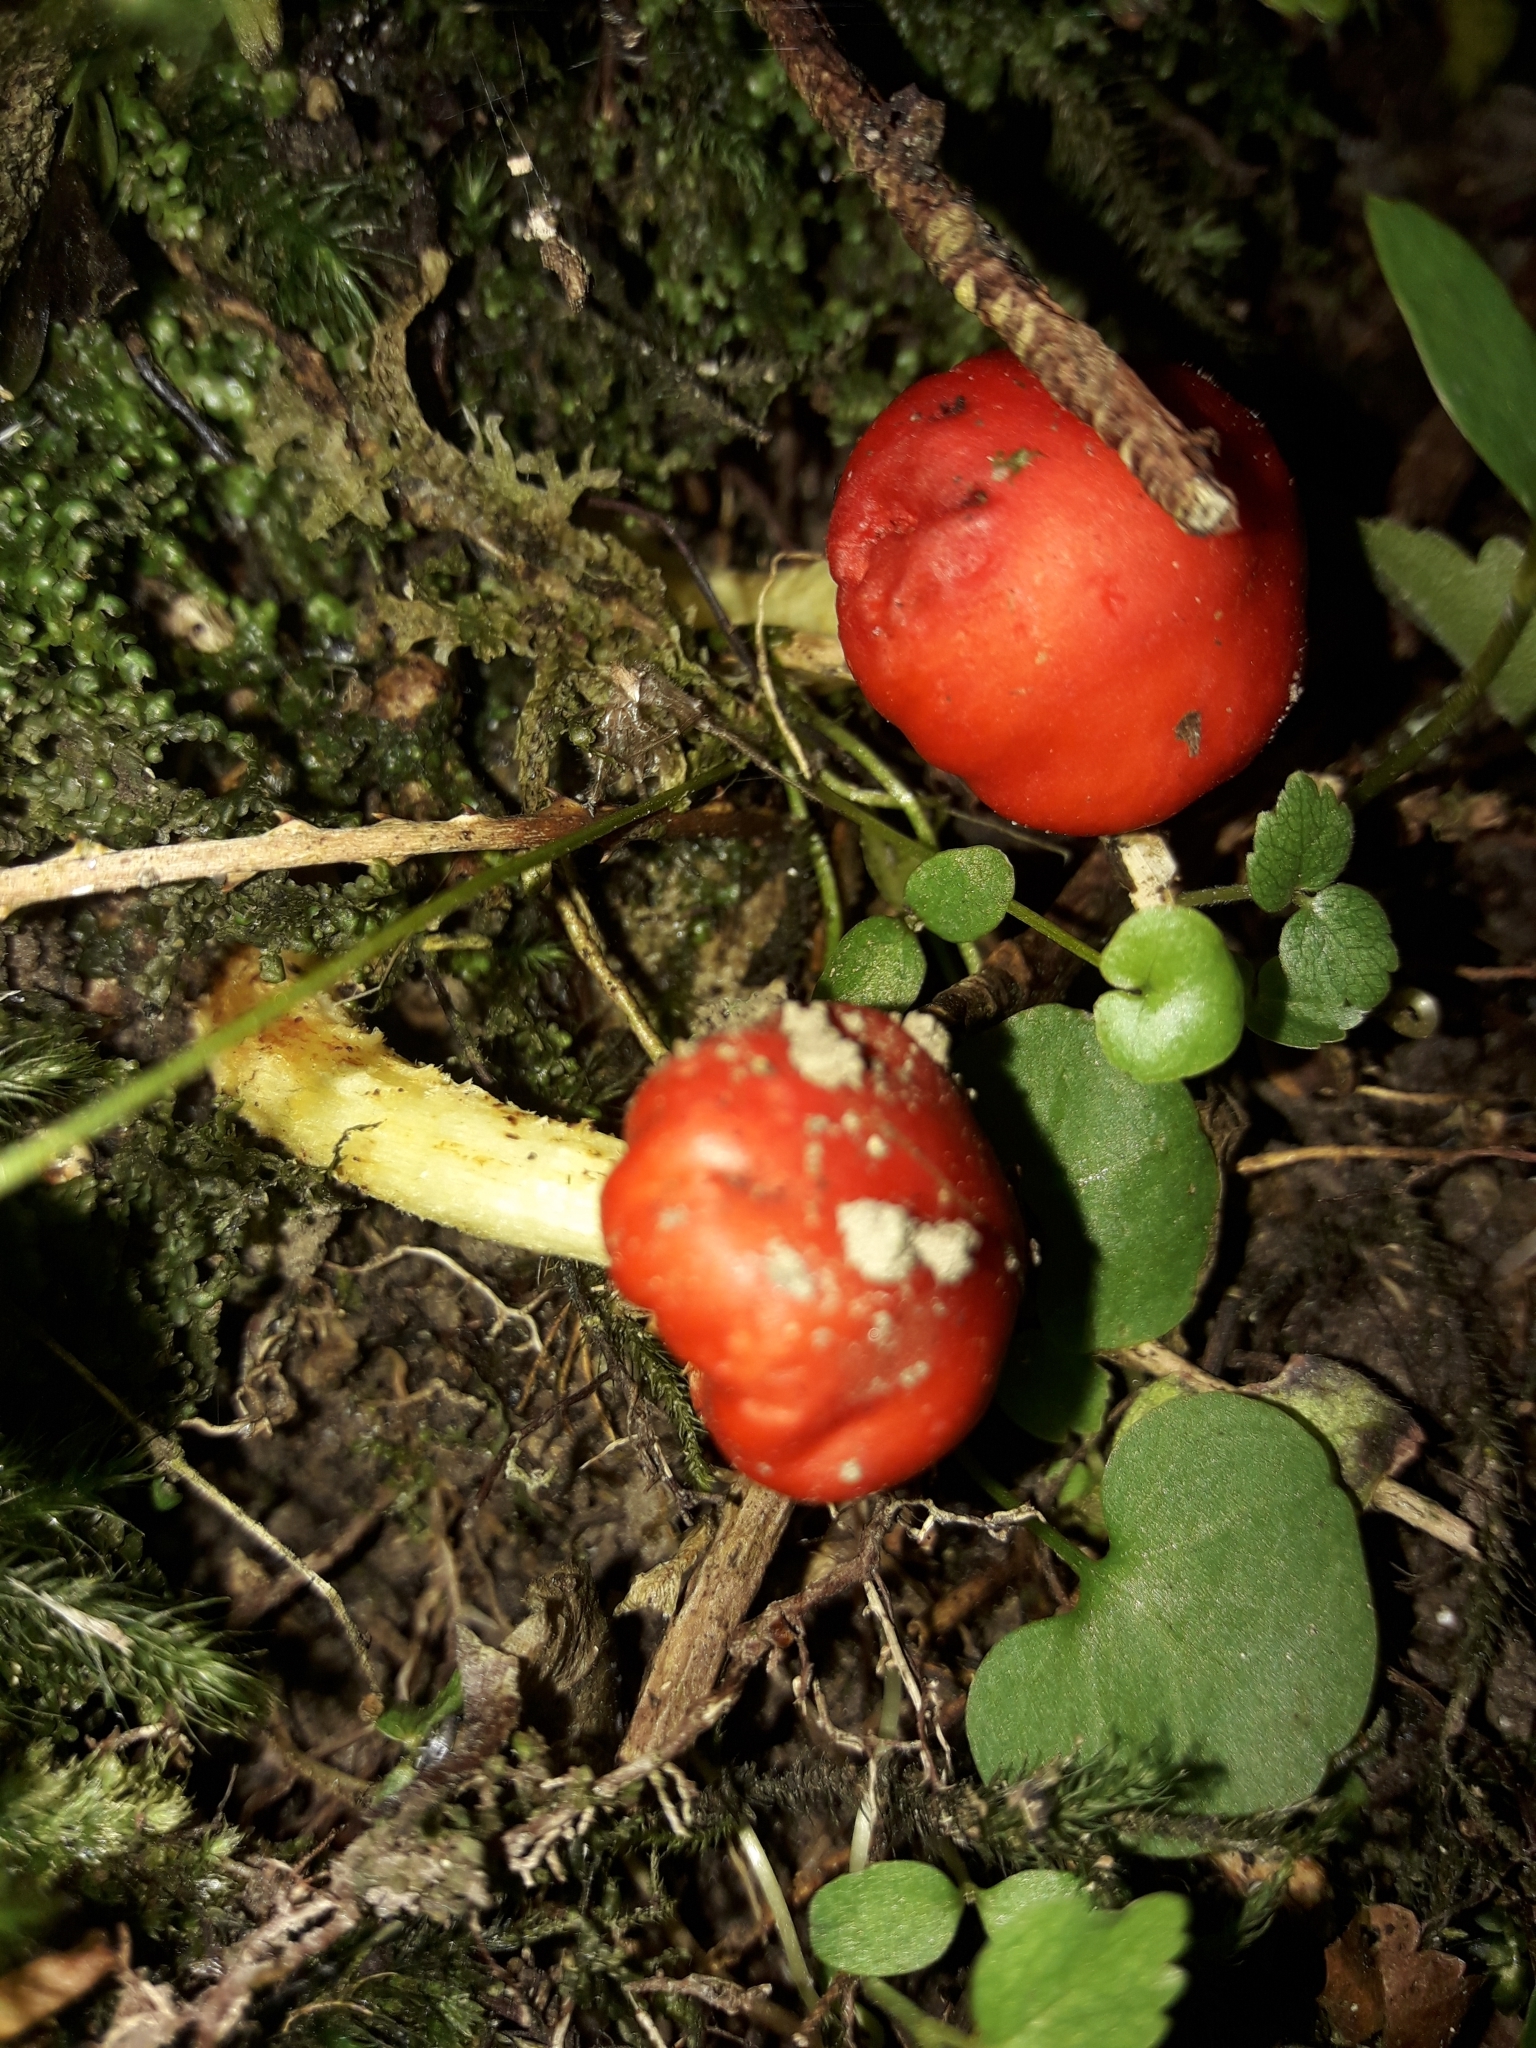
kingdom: Fungi
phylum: Basidiomycota
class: Agaricomycetes
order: Agaricales
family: Strophariaceae
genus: Leratiomyces
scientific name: Leratiomyces erythrocephalus
